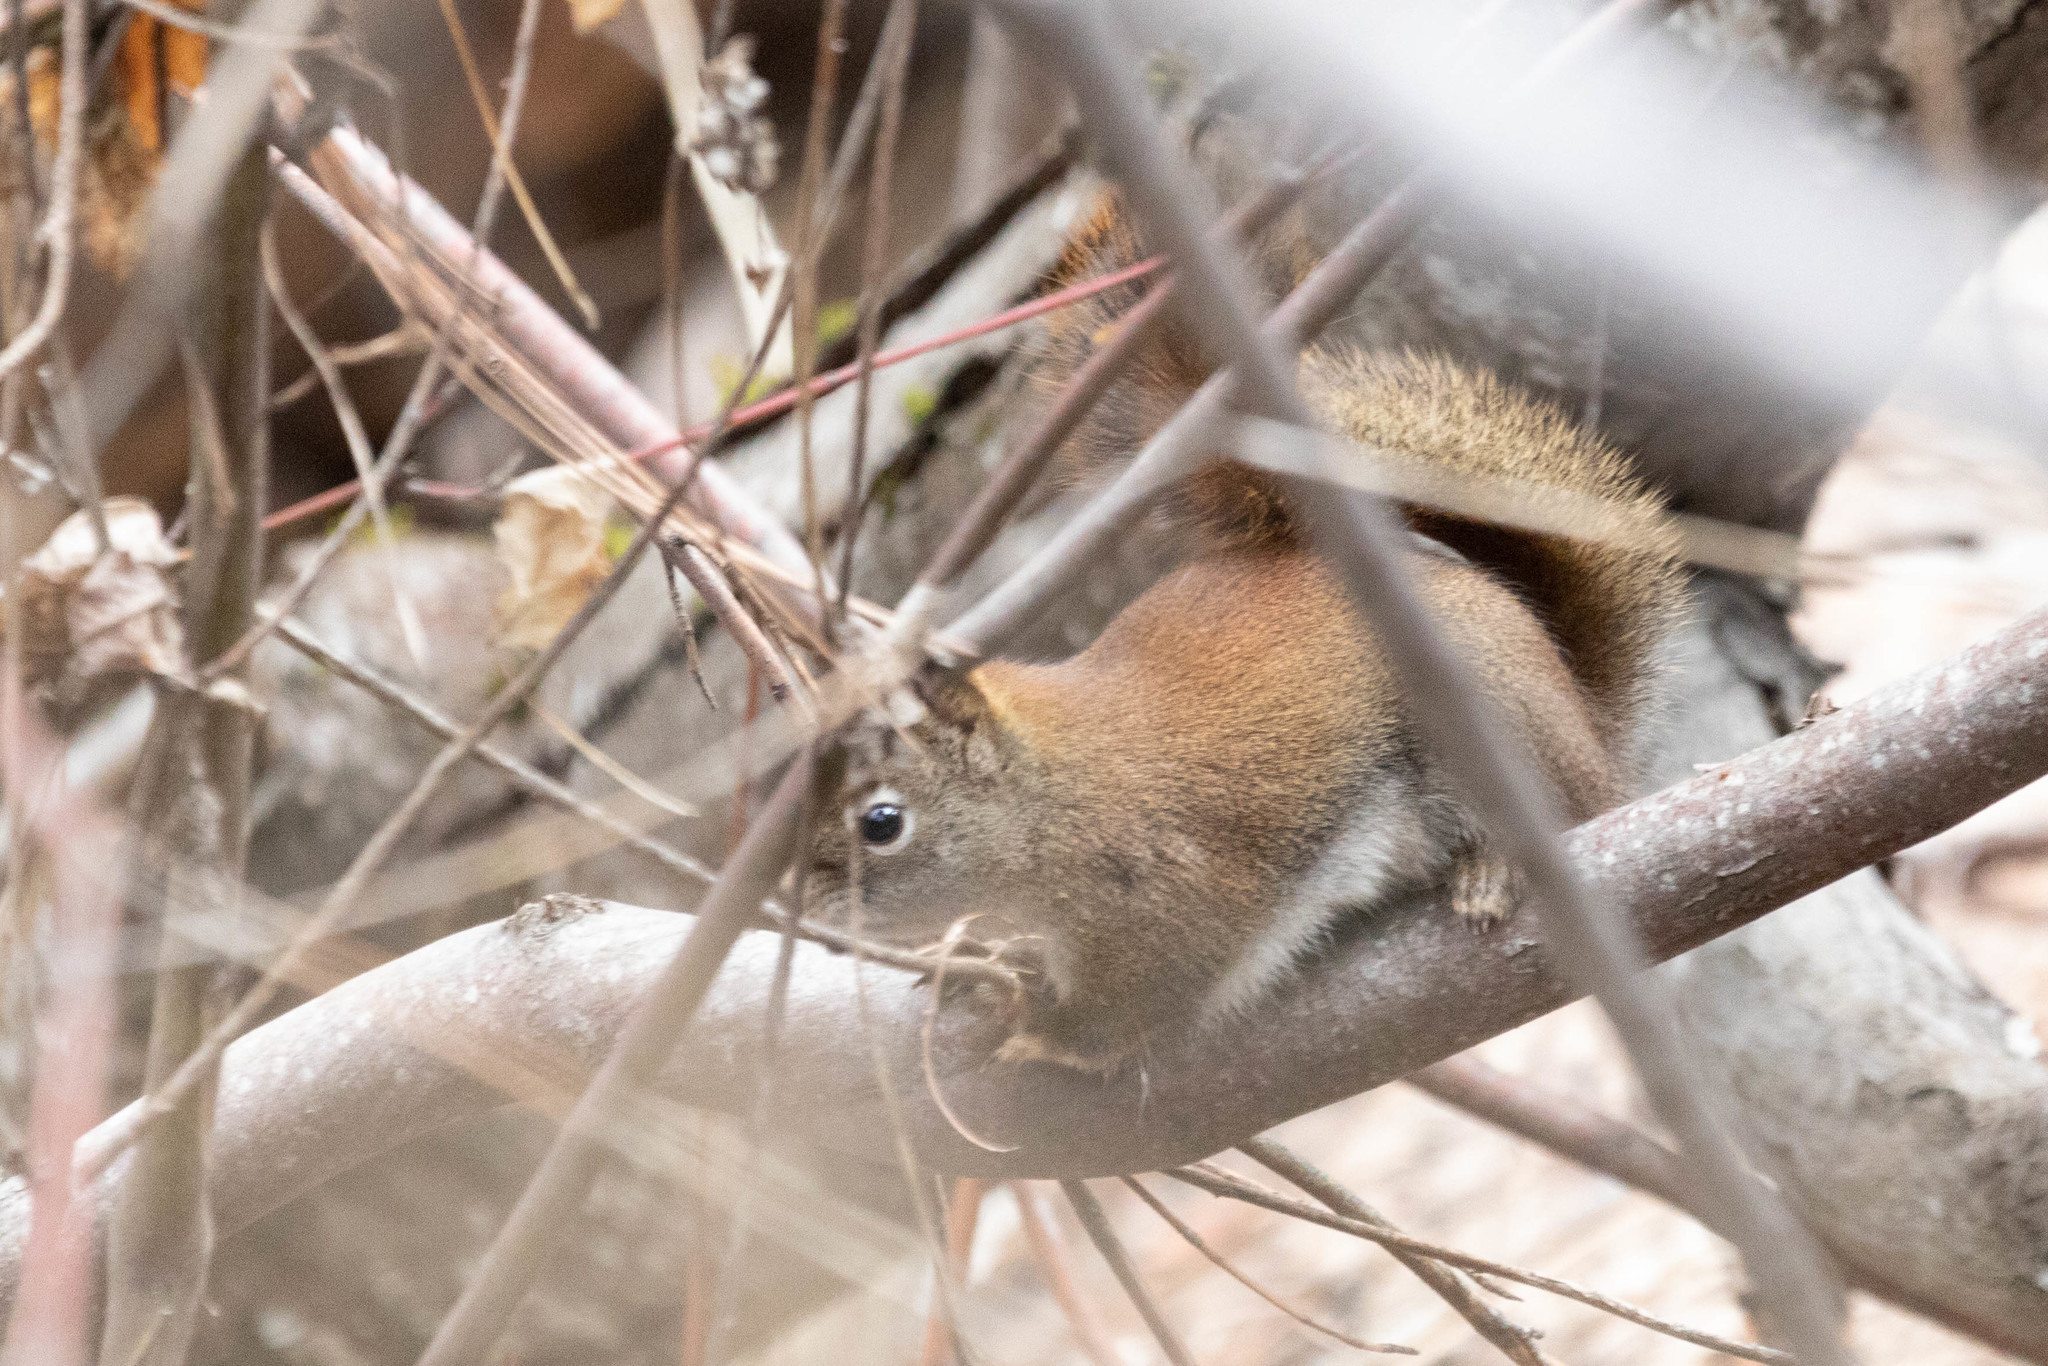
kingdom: Animalia
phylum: Chordata
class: Mammalia
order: Rodentia
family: Sciuridae
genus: Tamiasciurus
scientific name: Tamiasciurus hudsonicus
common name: Red squirrel
